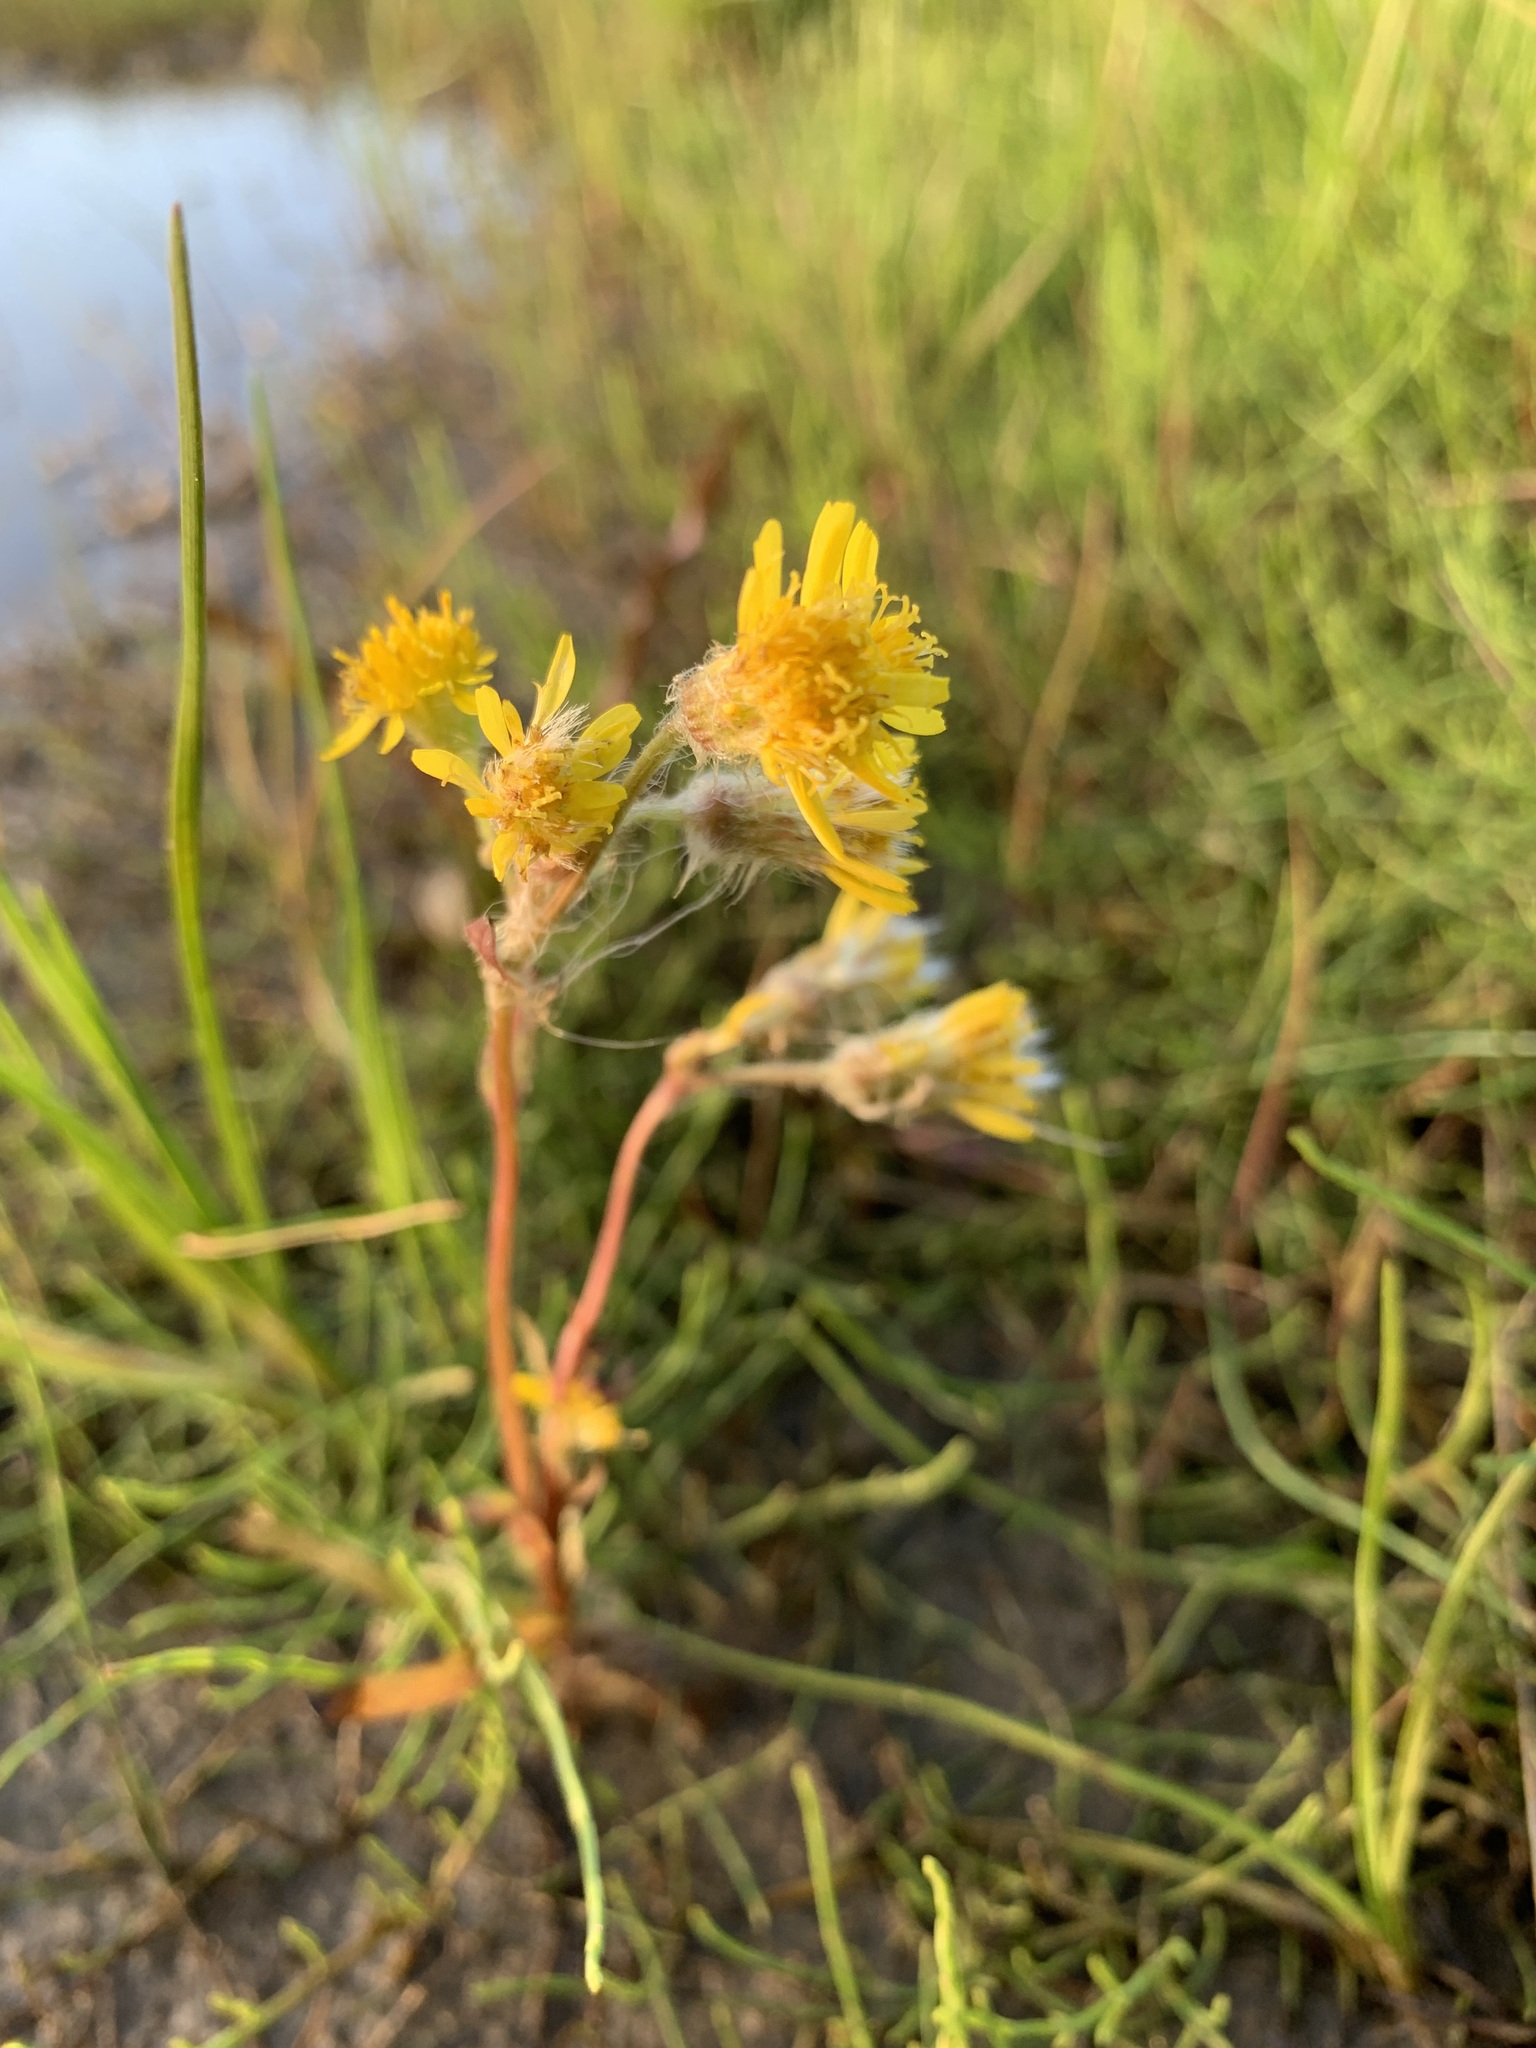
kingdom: Plantae
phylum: Tracheophyta
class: Magnoliopsida
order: Asterales
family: Asteraceae
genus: Tephroseris
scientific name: Tephroseris palustris
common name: Marsh fleawort
